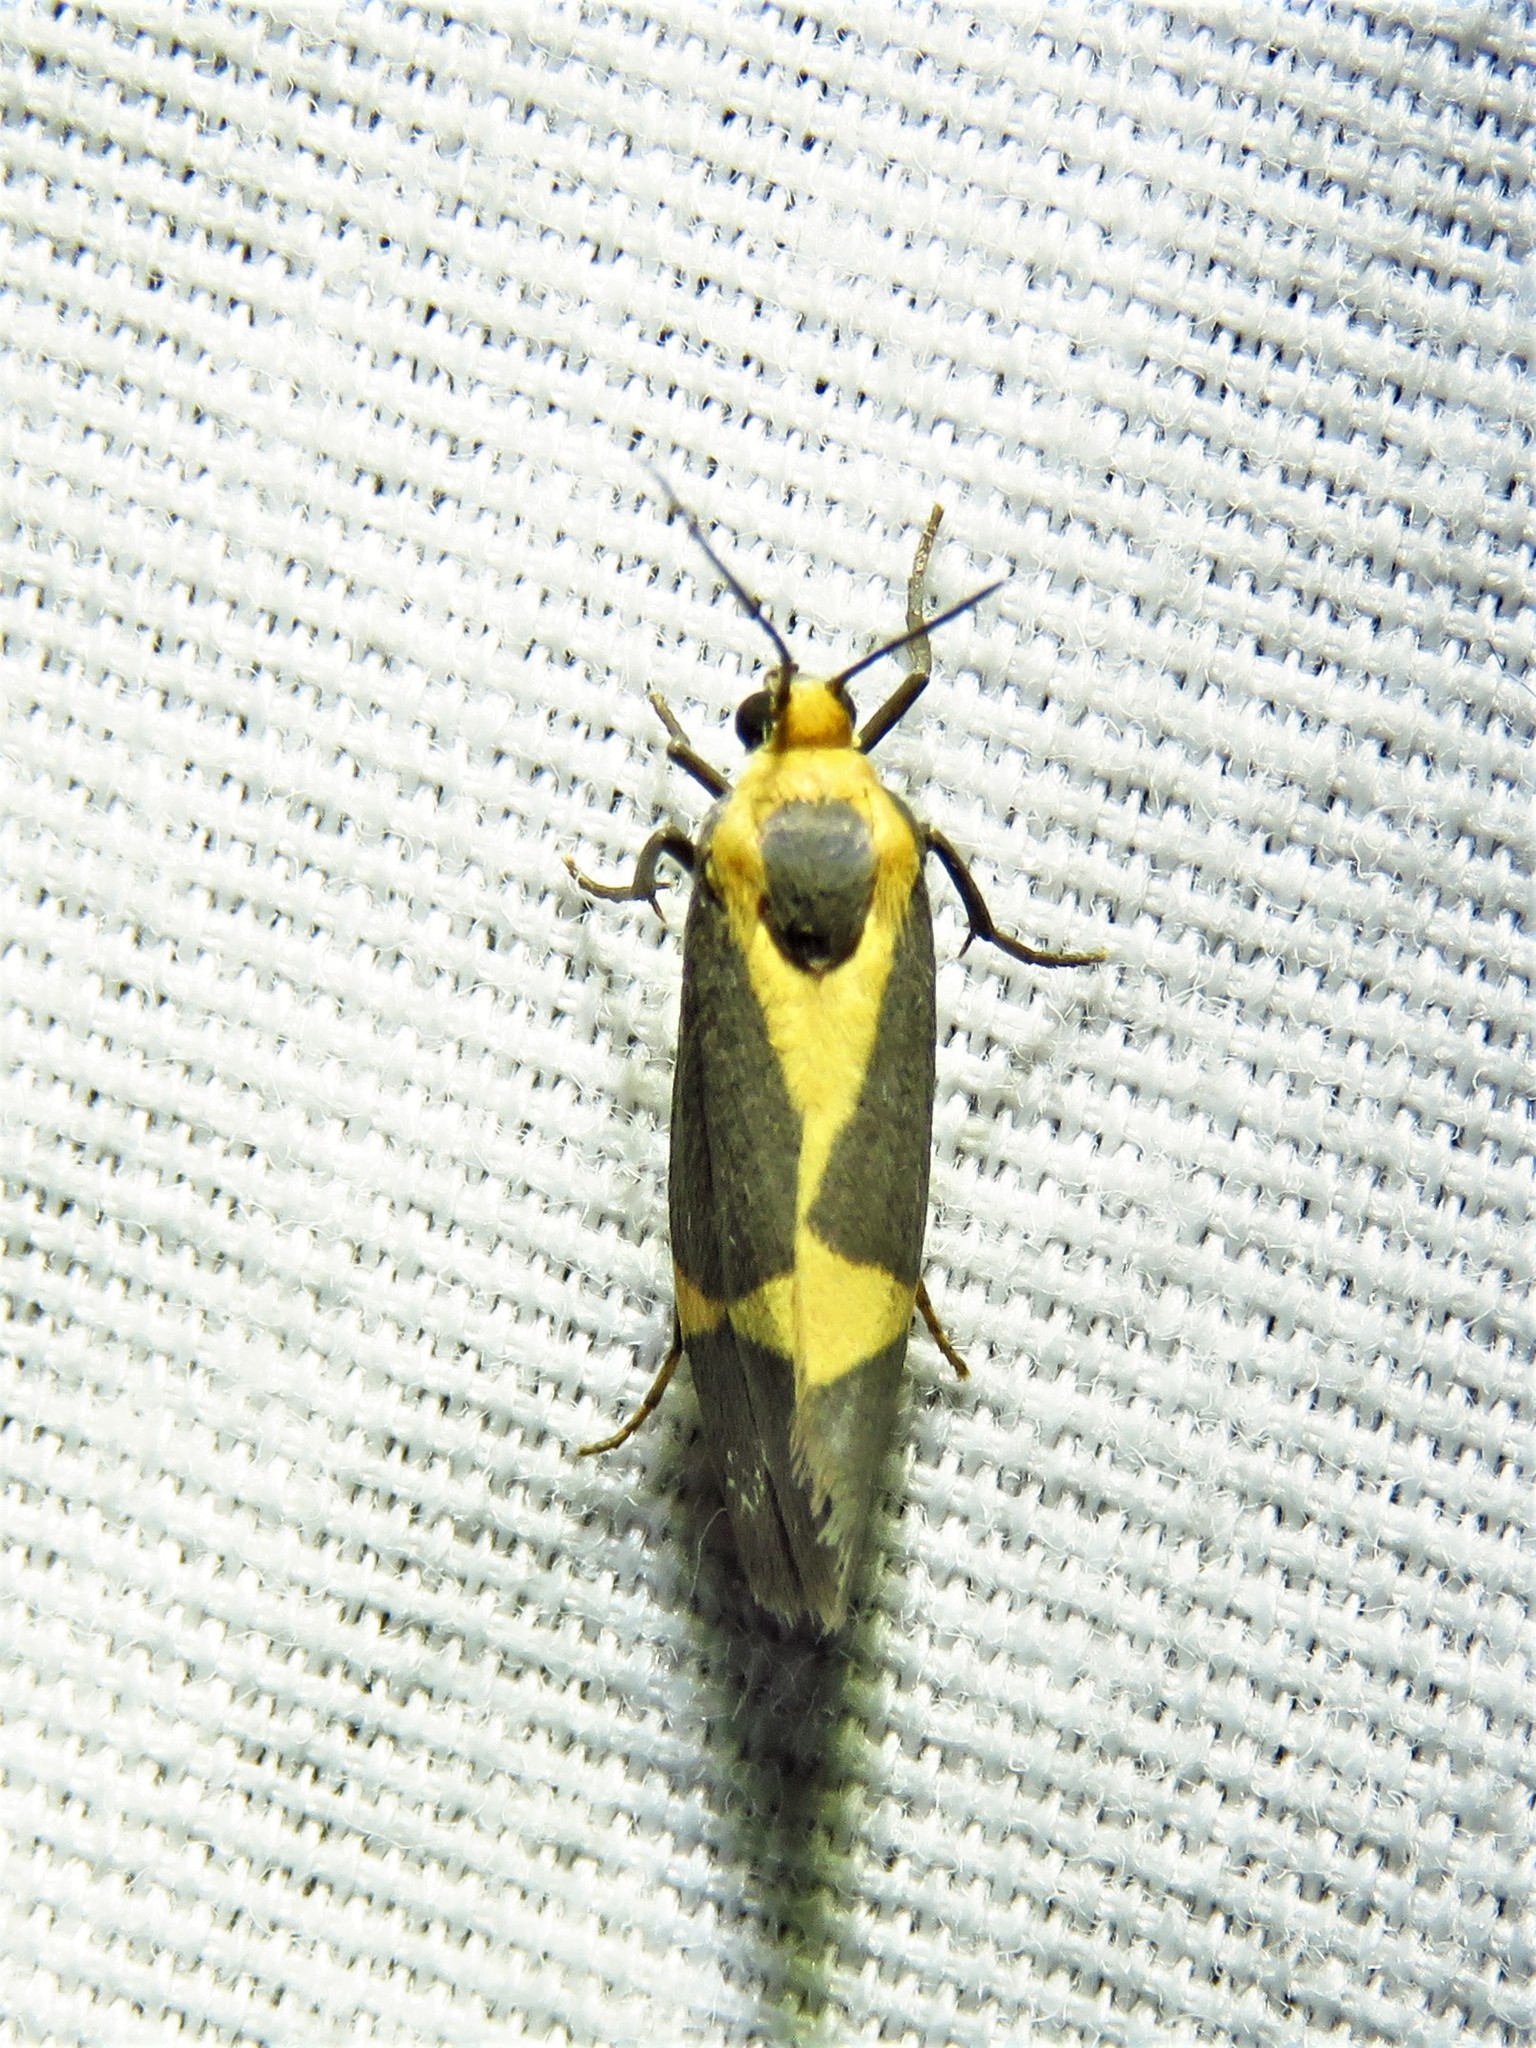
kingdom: Animalia
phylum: Arthropoda
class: Insecta
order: Lepidoptera
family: Erebidae
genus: Cisthene
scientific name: Cisthene tenuifascia
